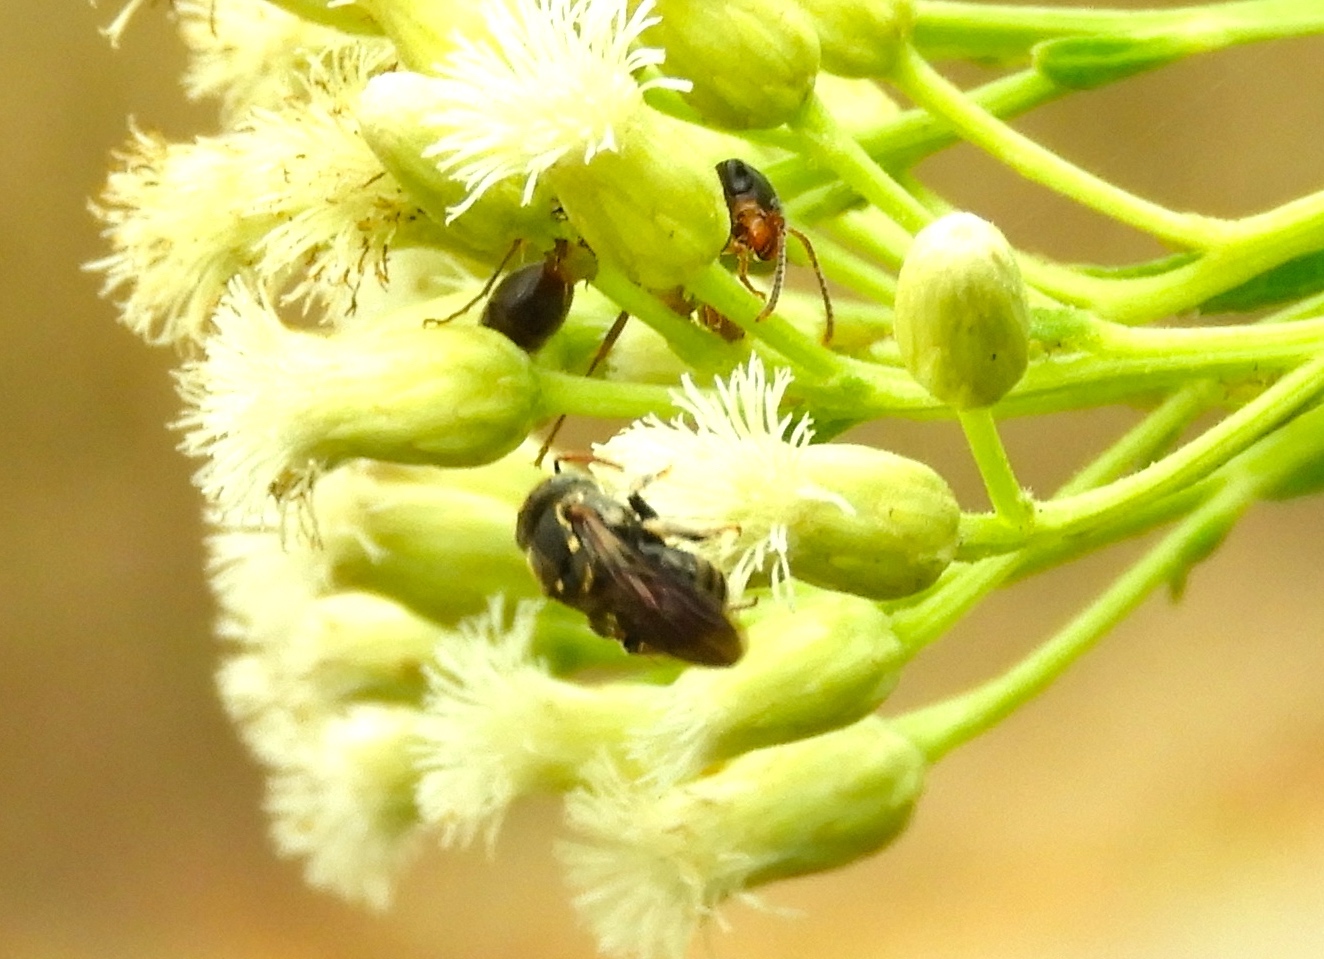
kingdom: Animalia
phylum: Arthropoda
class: Insecta
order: Hymenoptera
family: Formicidae
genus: Pseudomyrmex
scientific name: Pseudomyrmex gracilis
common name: Graceful twig ant
